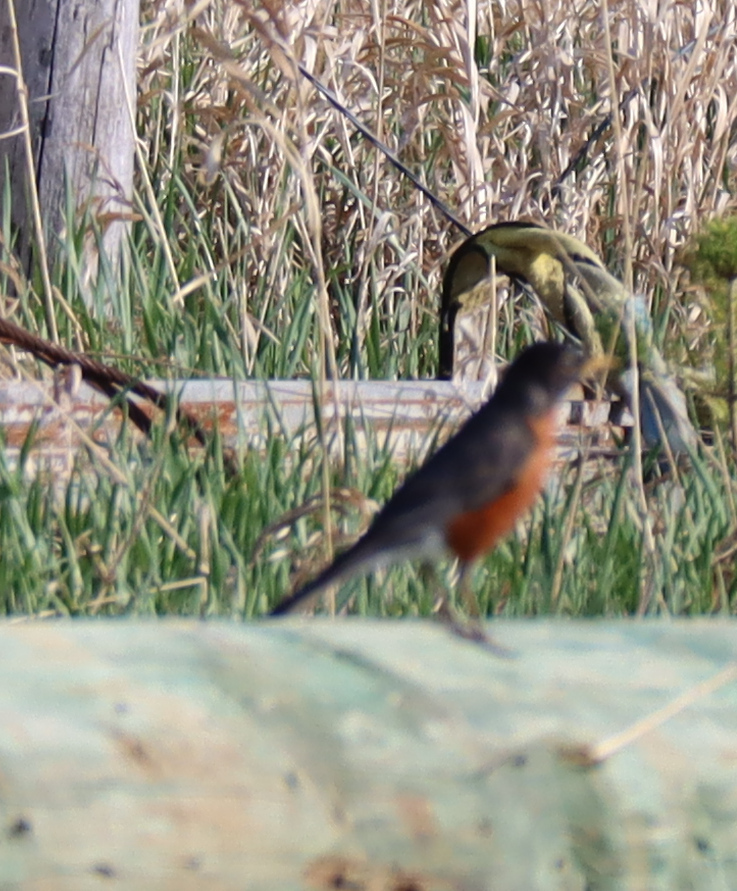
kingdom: Animalia
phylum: Chordata
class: Aves
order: Passeriformes
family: Turdidae
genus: Turdus
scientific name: Turdus migratorius
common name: American robin
